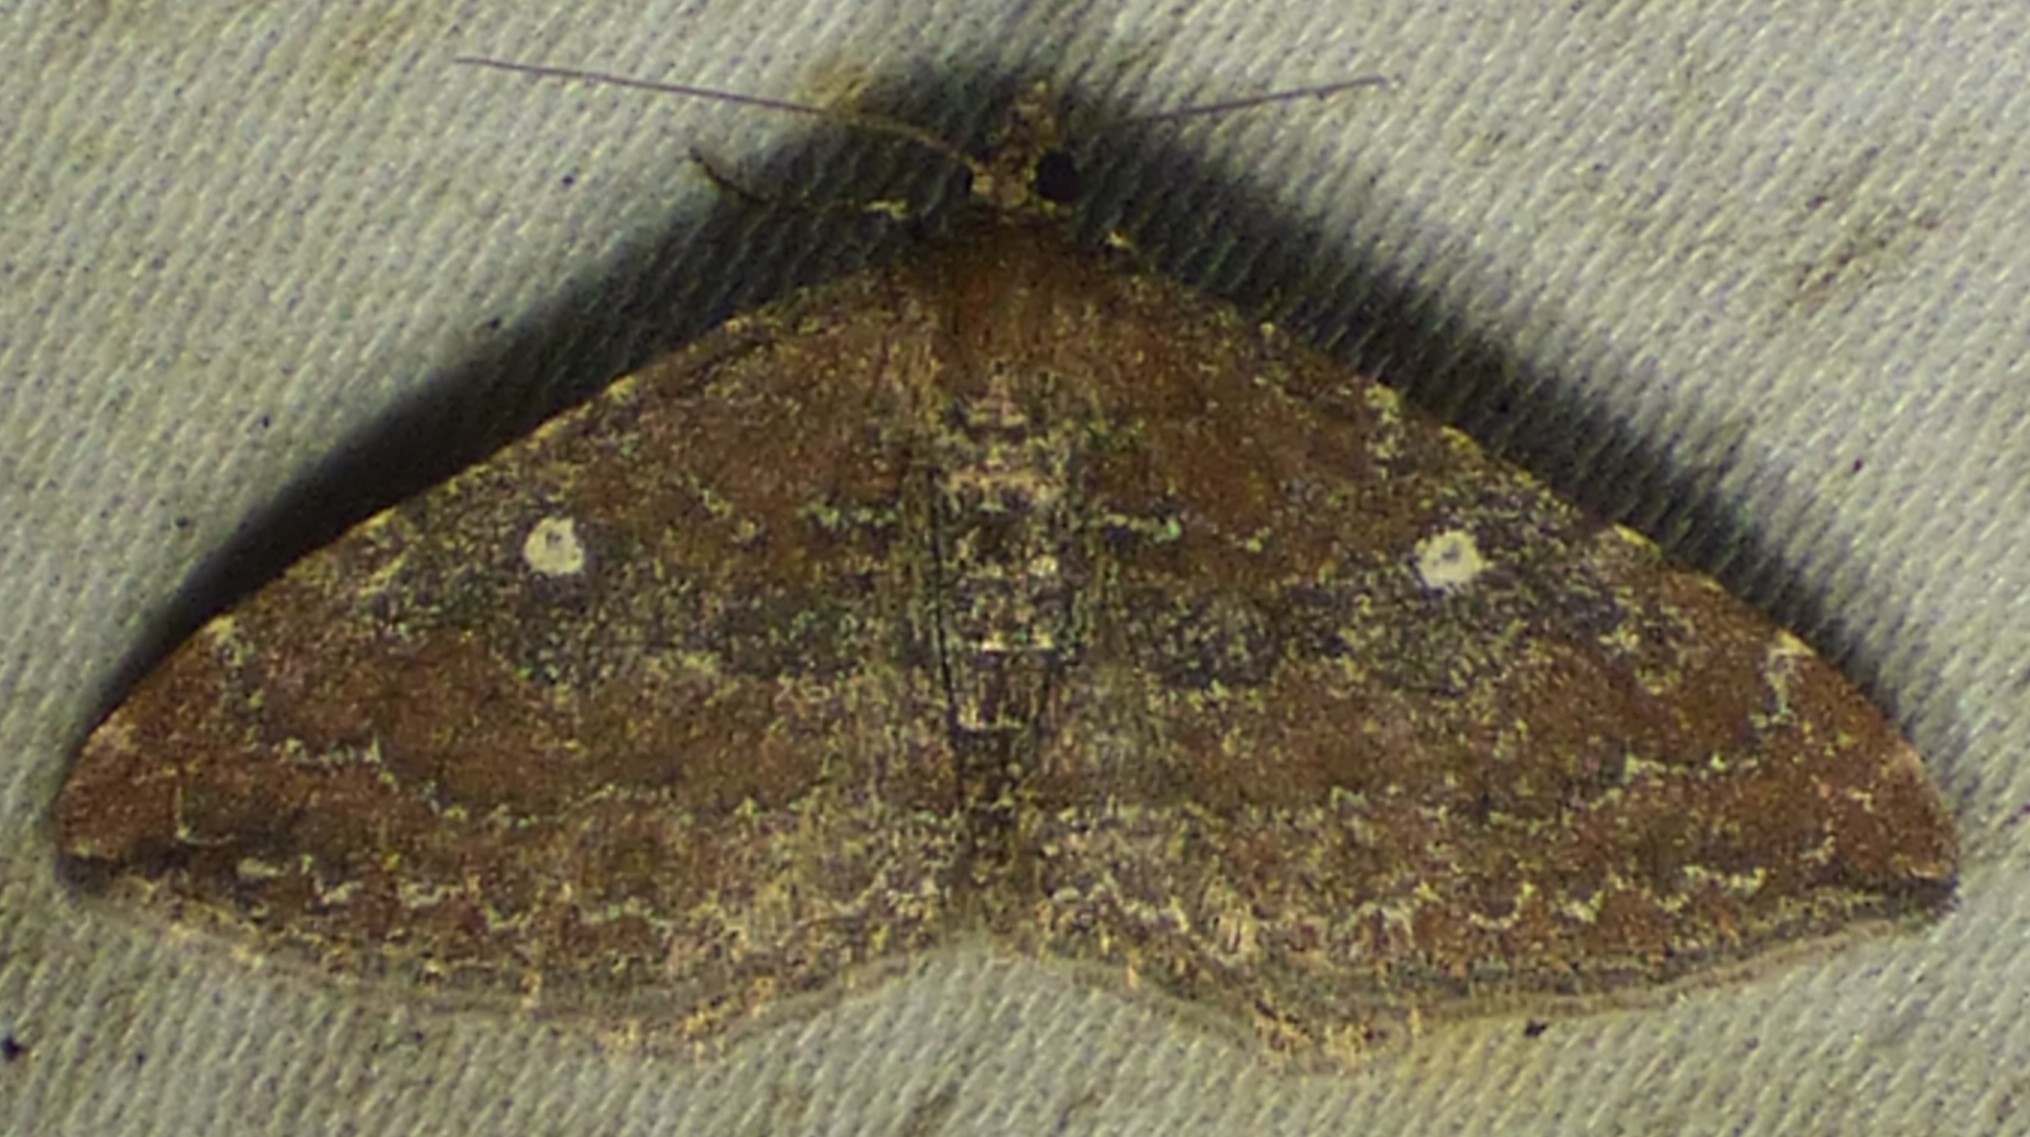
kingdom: Animalia
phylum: Arthropoda
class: Insecta
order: Lepidoptera
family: Geometridae
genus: Orthonama
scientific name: Orthonama obstipata
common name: The gem
